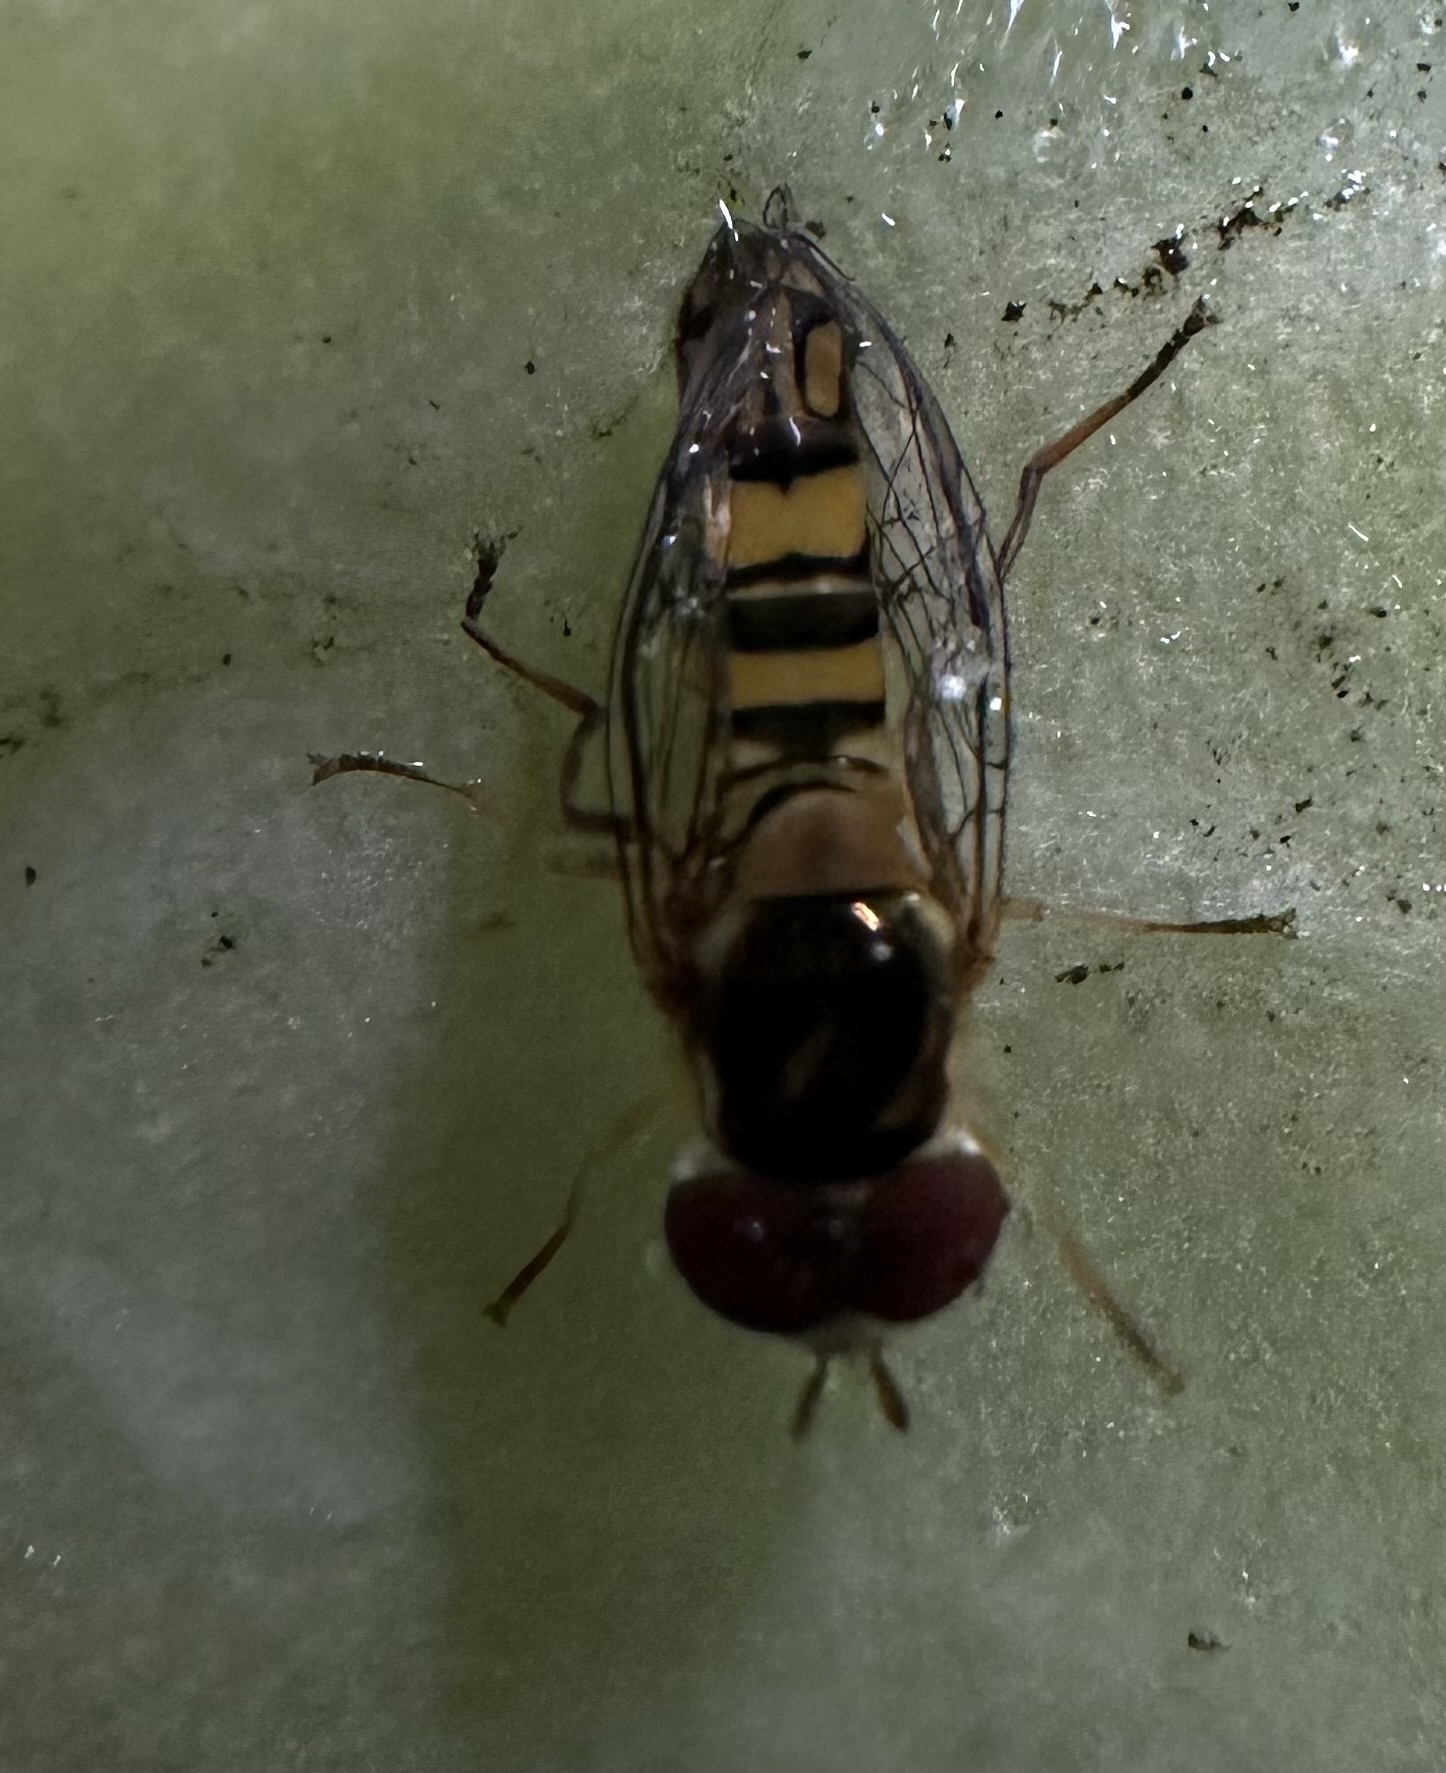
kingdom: Animalia
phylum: Arthropoda
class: Insecta
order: Diptera
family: Syrphidae
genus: Allograpta
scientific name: Allograpta obliqua
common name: Common oblique syrphid
